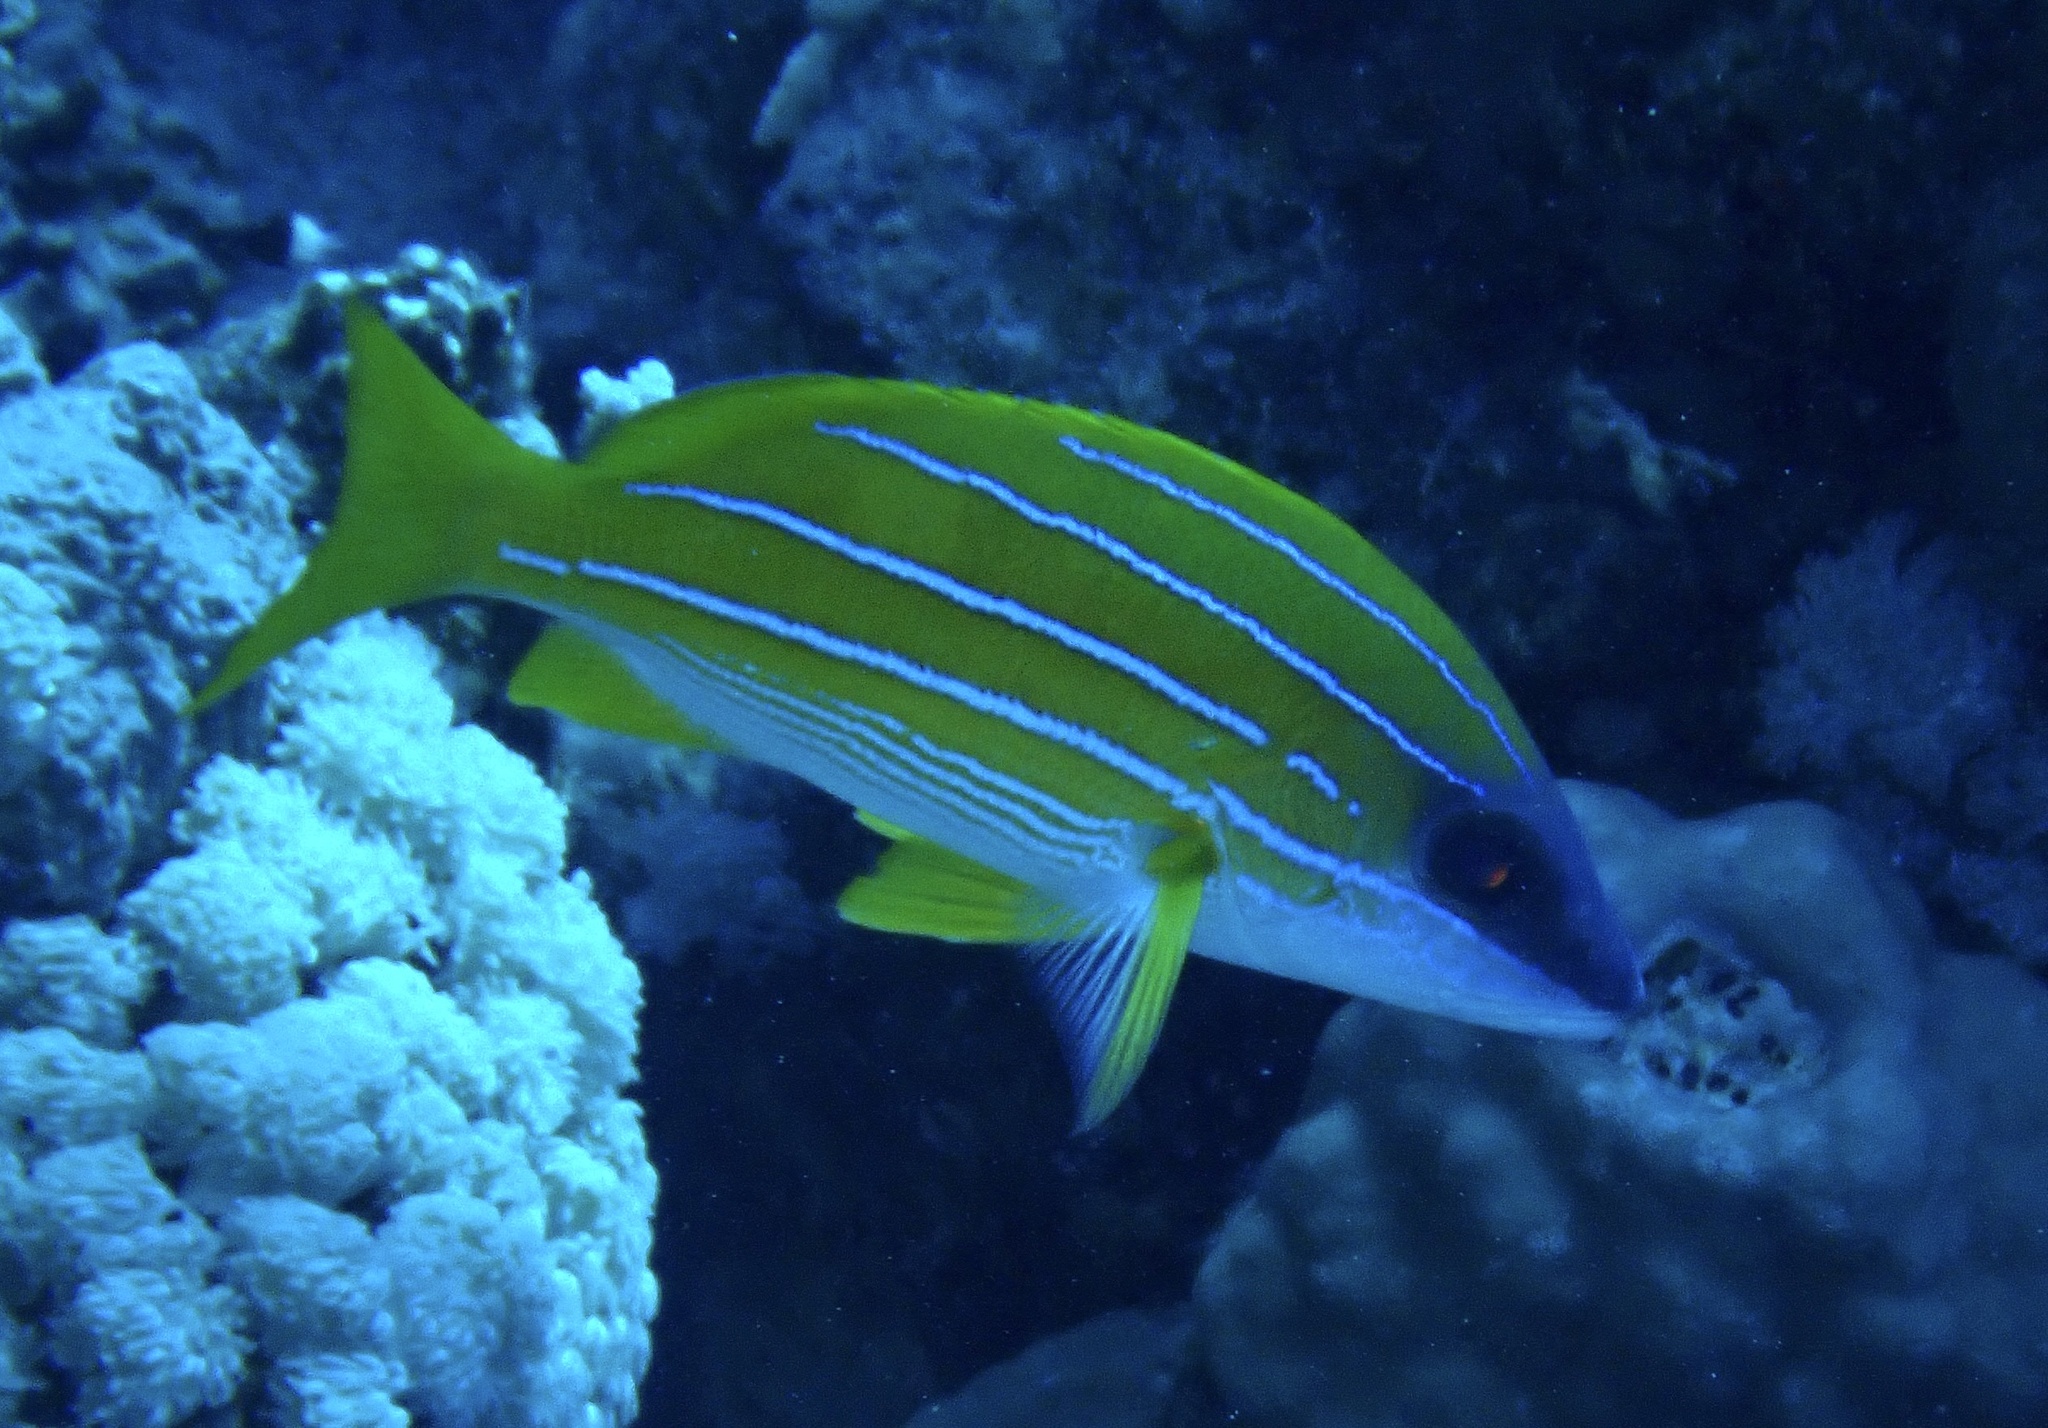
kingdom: Animalia
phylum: Chordata
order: Perciformes
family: Lutjanidae
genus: Lutjanus
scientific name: Lutjanus kasmira
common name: Common bluestripe snapper
